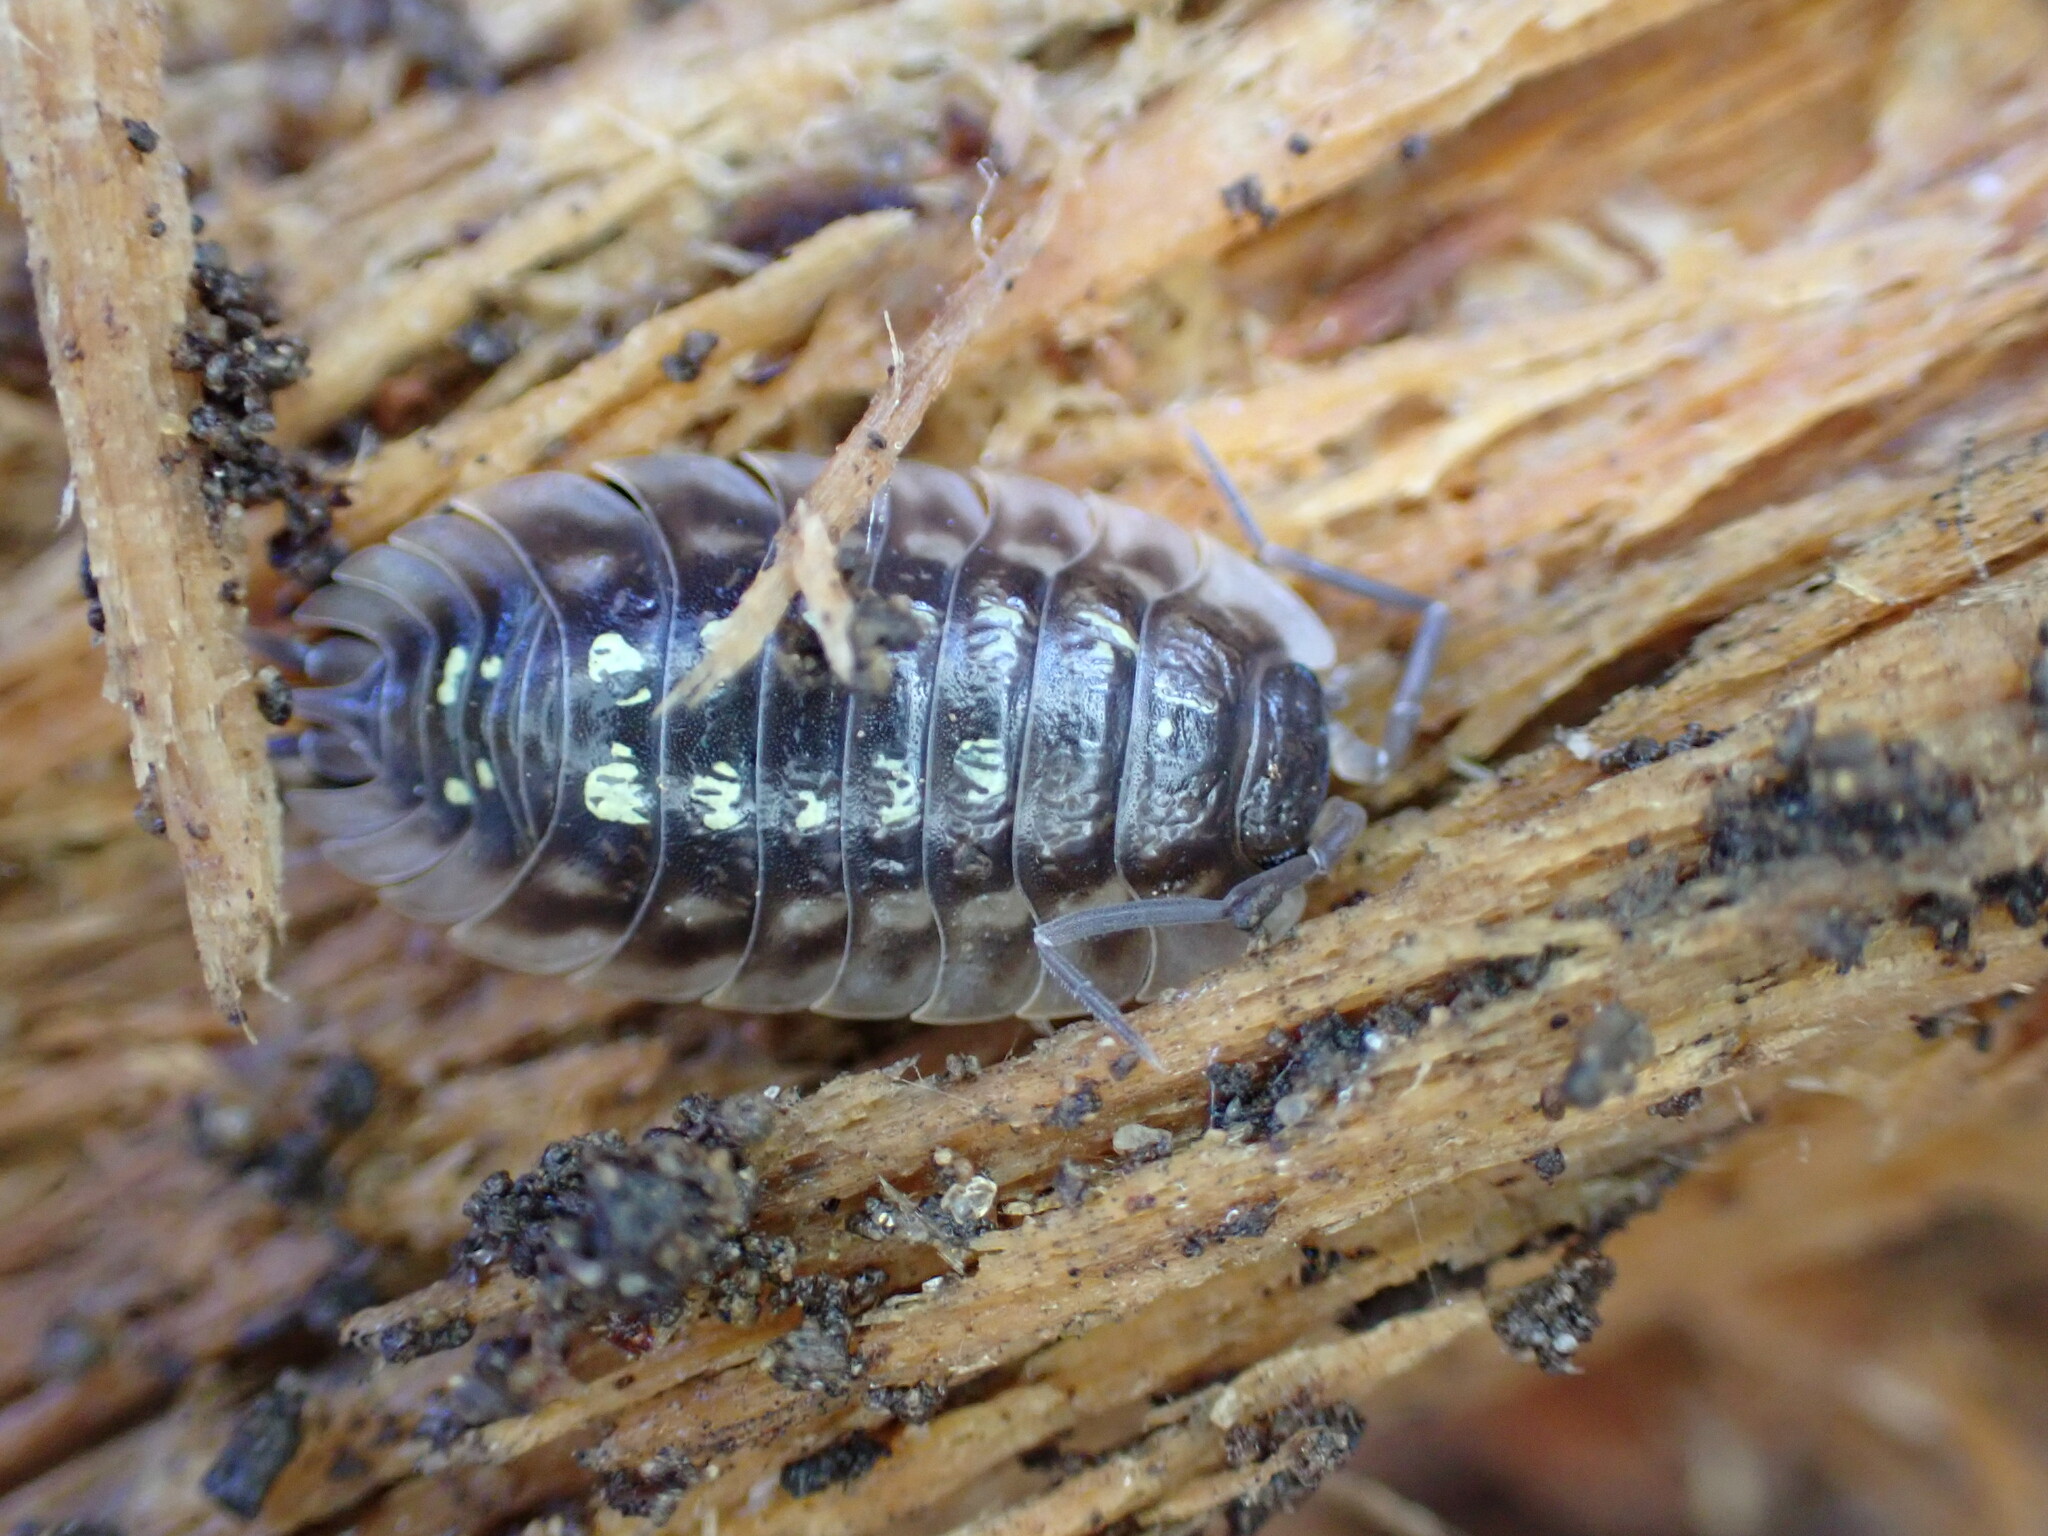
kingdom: Animalia
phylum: Arthropoda
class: Malacostraca
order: Isopoda
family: Oniscidae
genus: Oniscus
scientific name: Oniscus asellus
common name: Common shiny woodlouse
